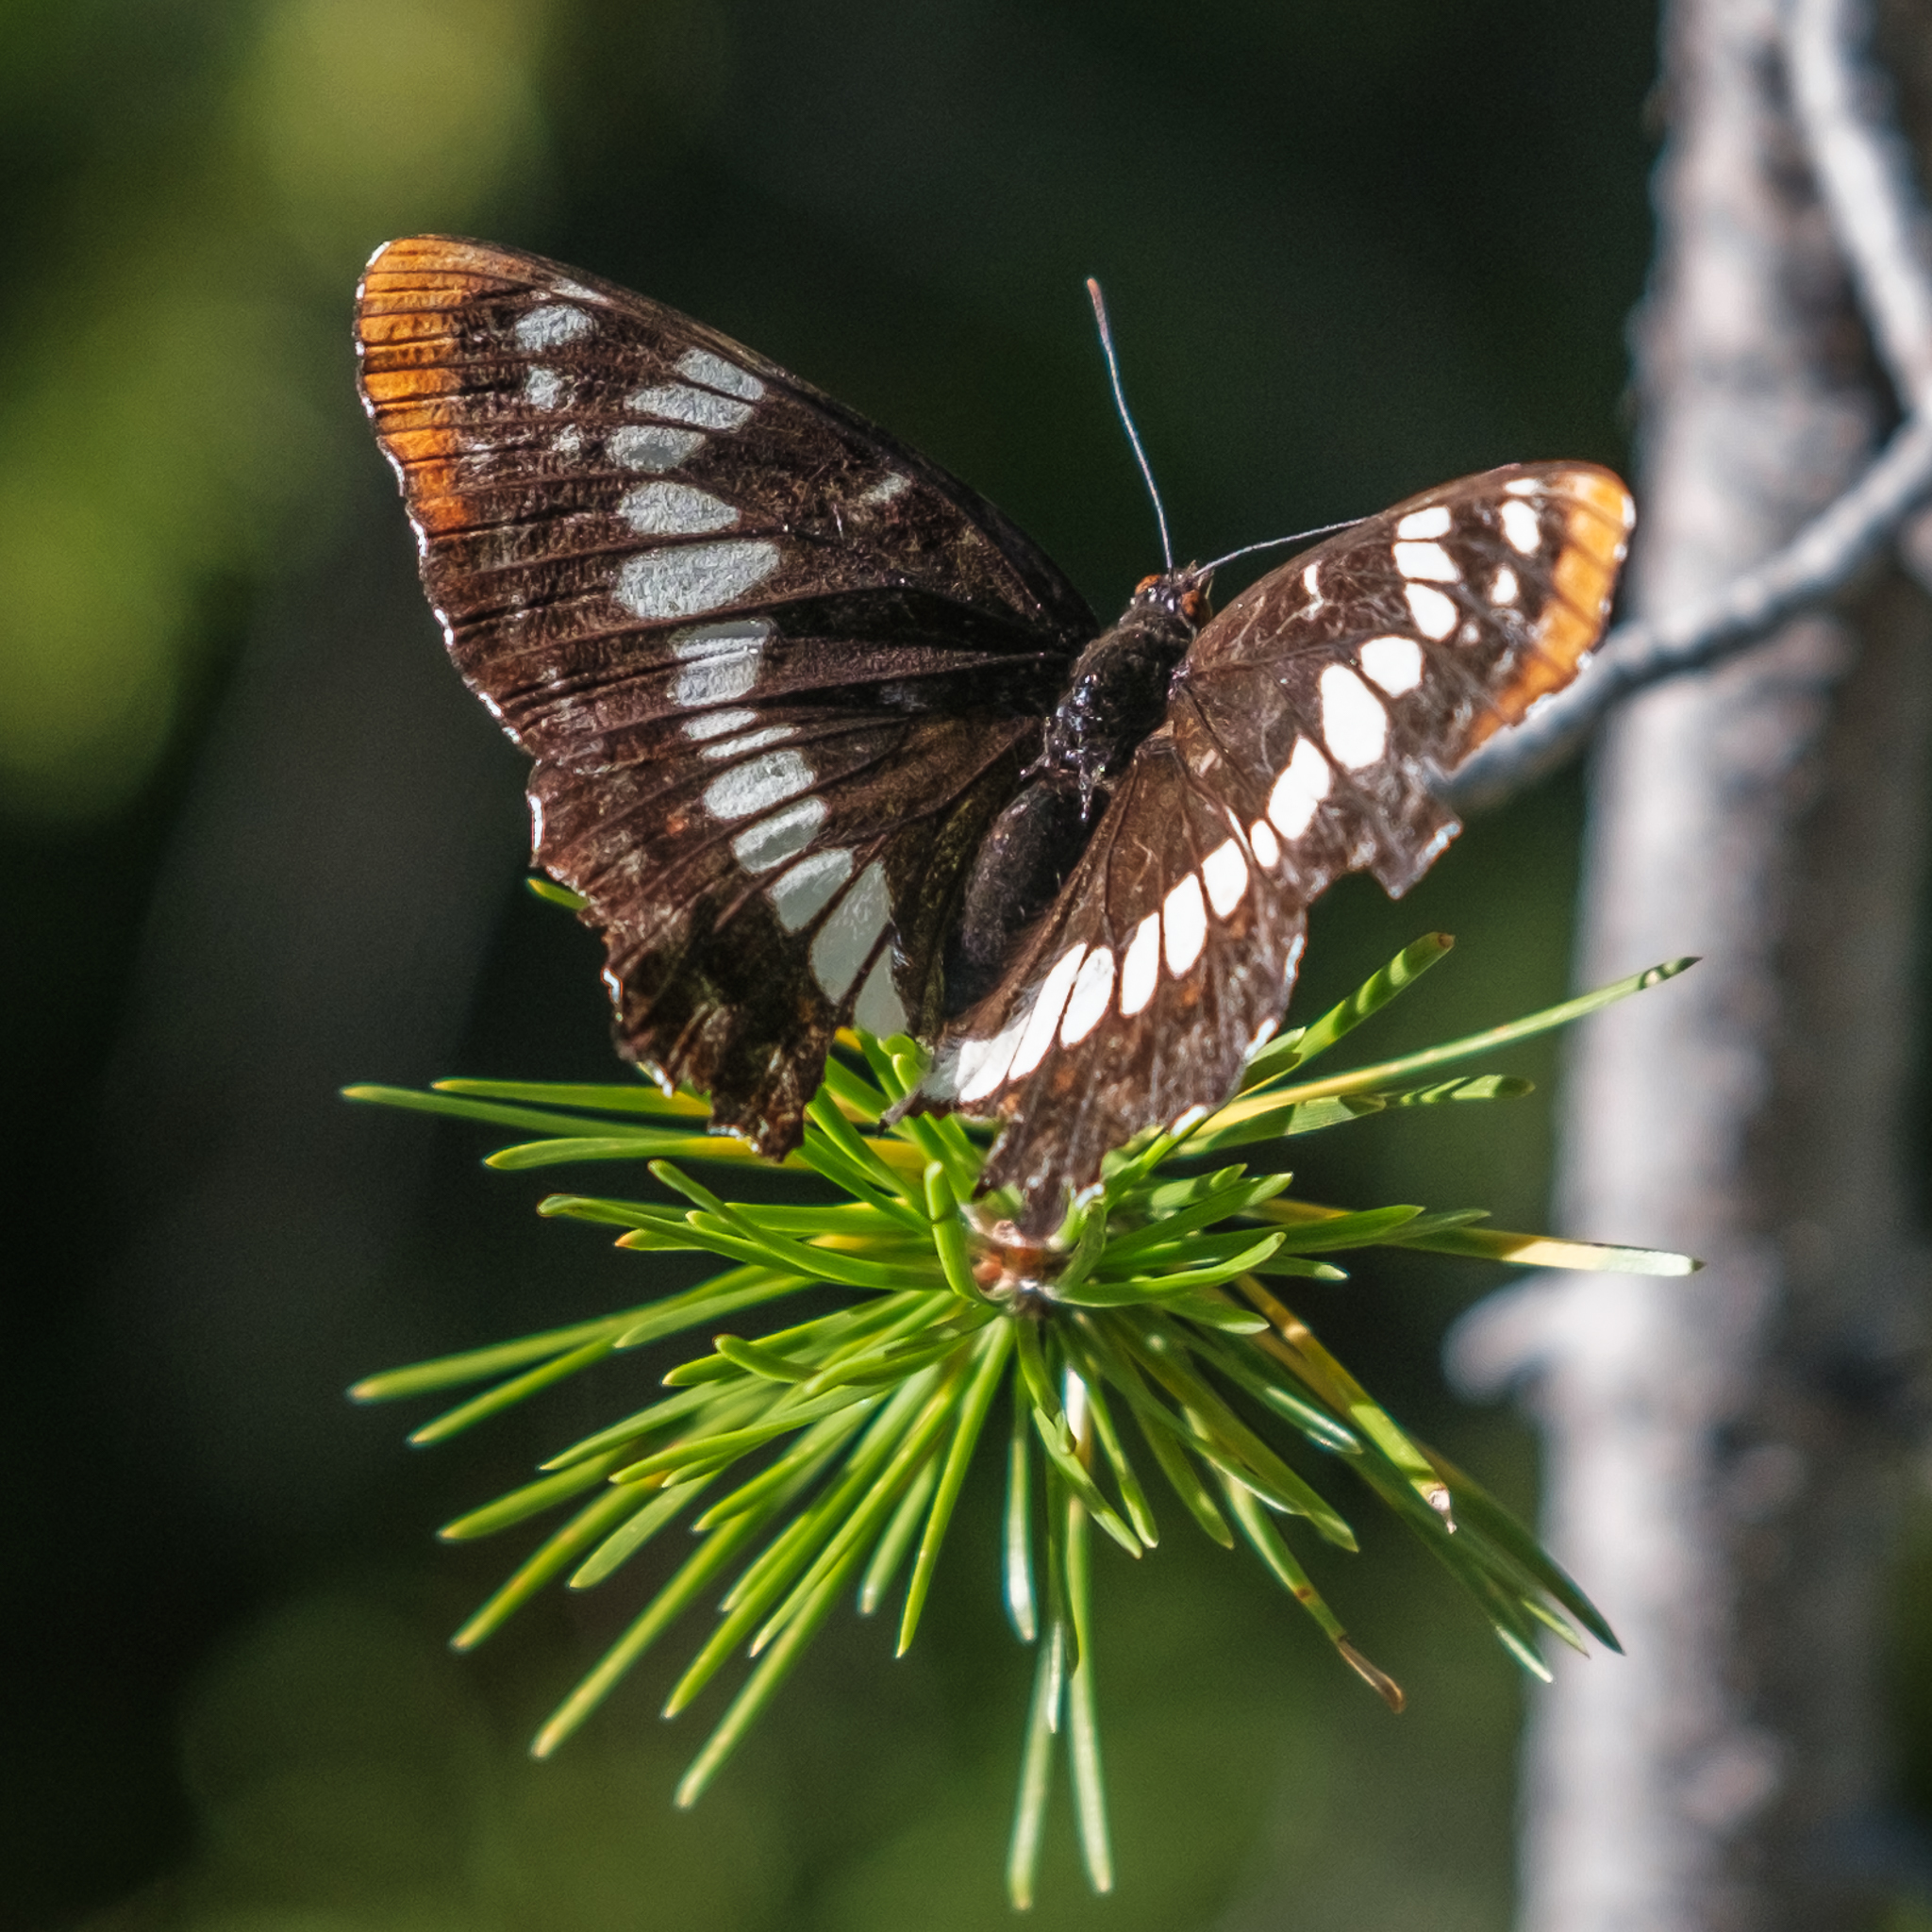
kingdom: Animalia
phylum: Arthropoda
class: Insecta
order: Lepidoptera
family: Nymphalidae
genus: Limenitis
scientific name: Limenitis lorquini
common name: Lorquin's admiral
